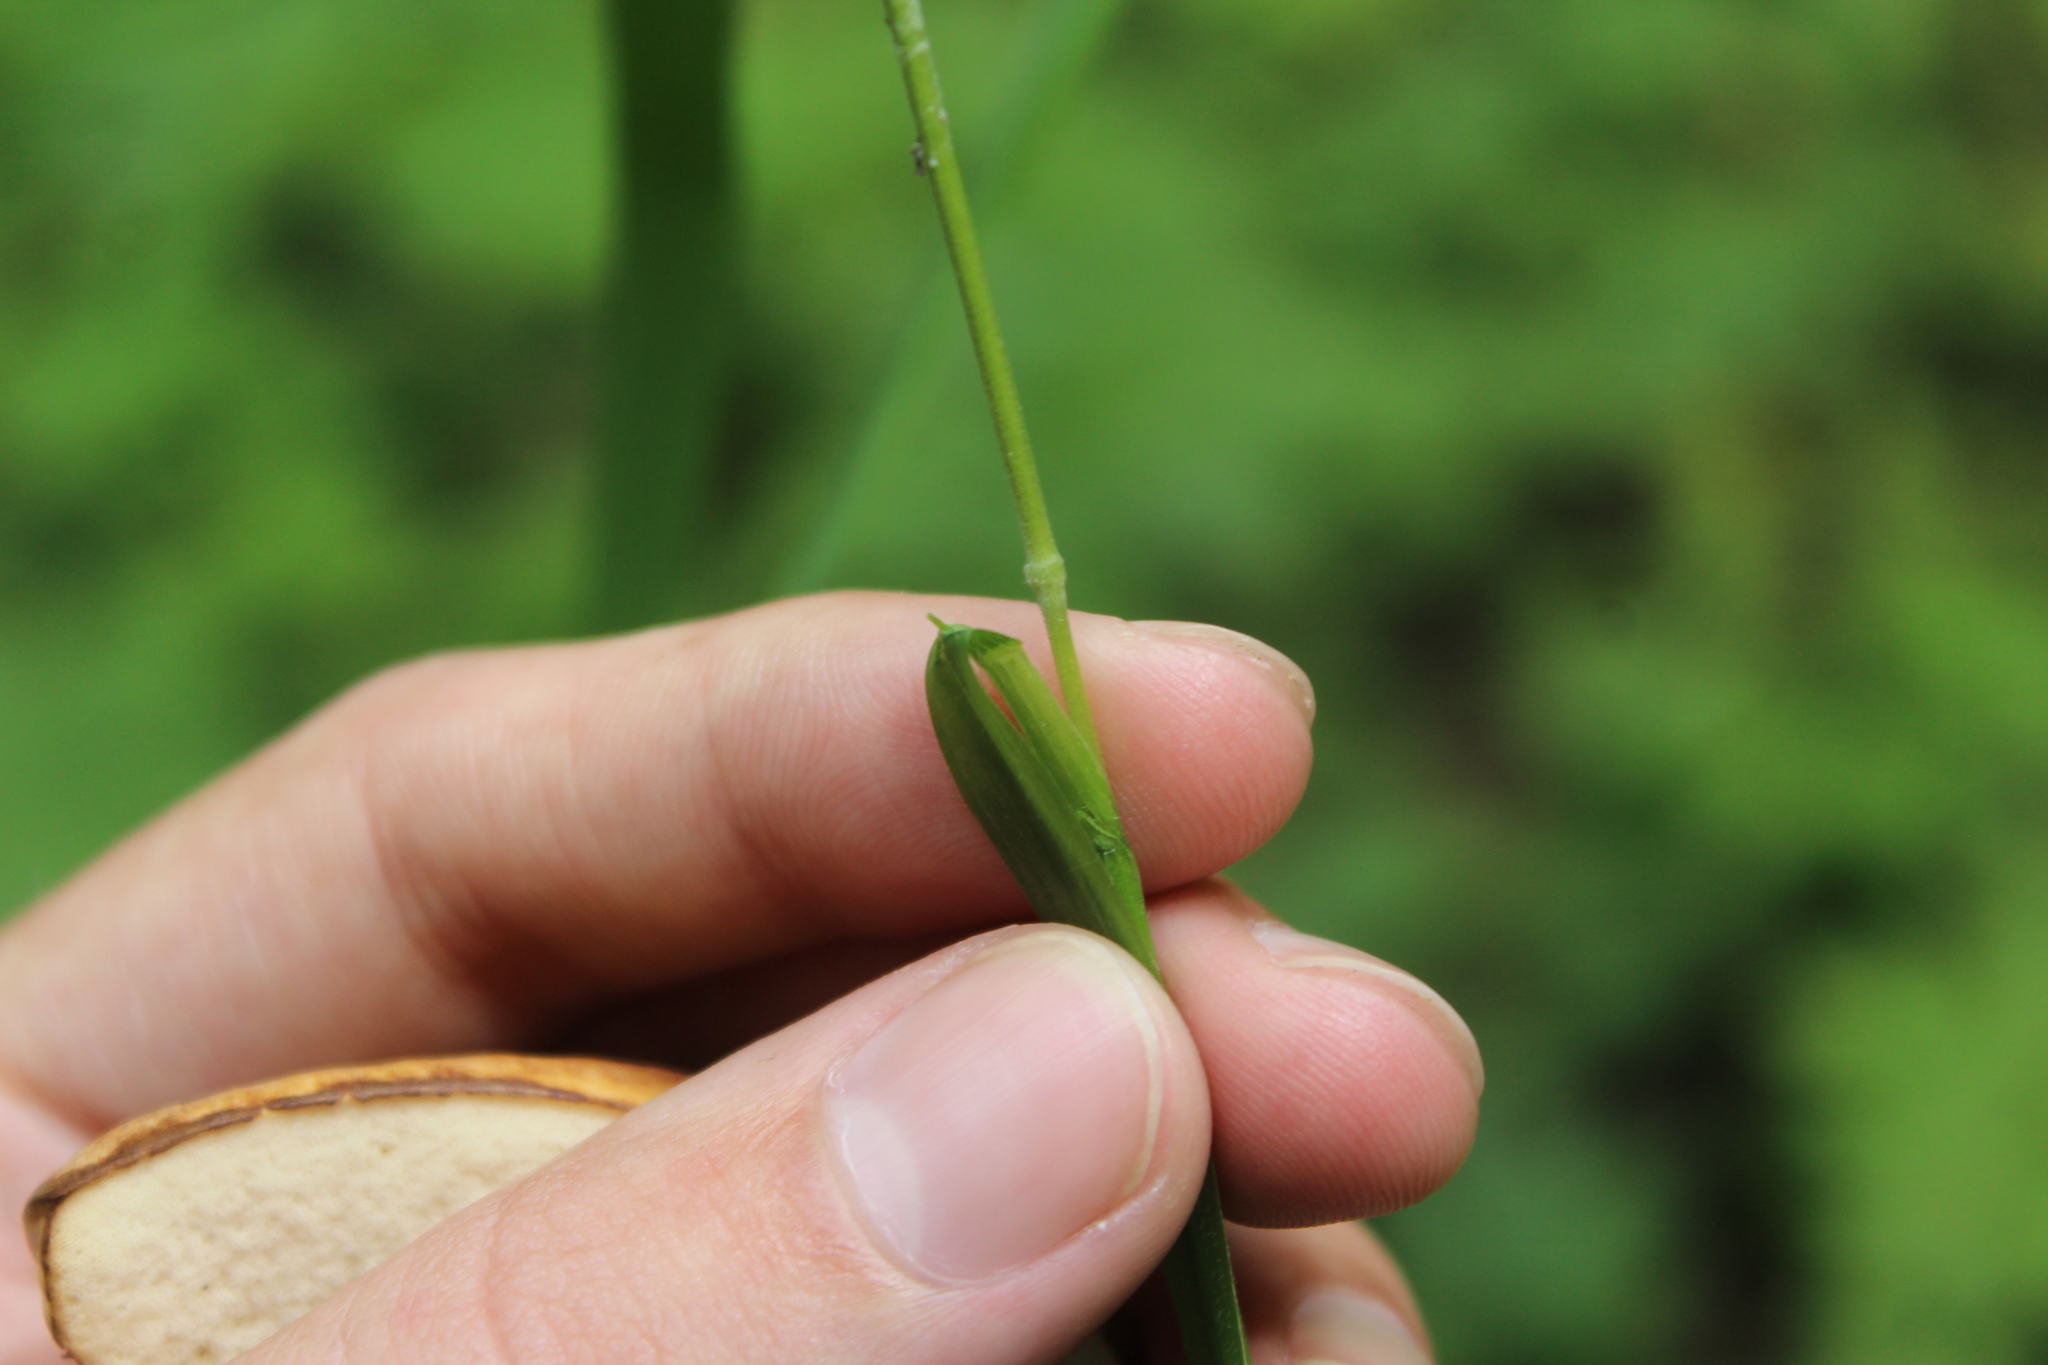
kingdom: Plantae
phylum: Tracheophyta
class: Liliopsida
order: Poales
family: Poaceae
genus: Elymus
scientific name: Elymus caninus
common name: Bearded couch
